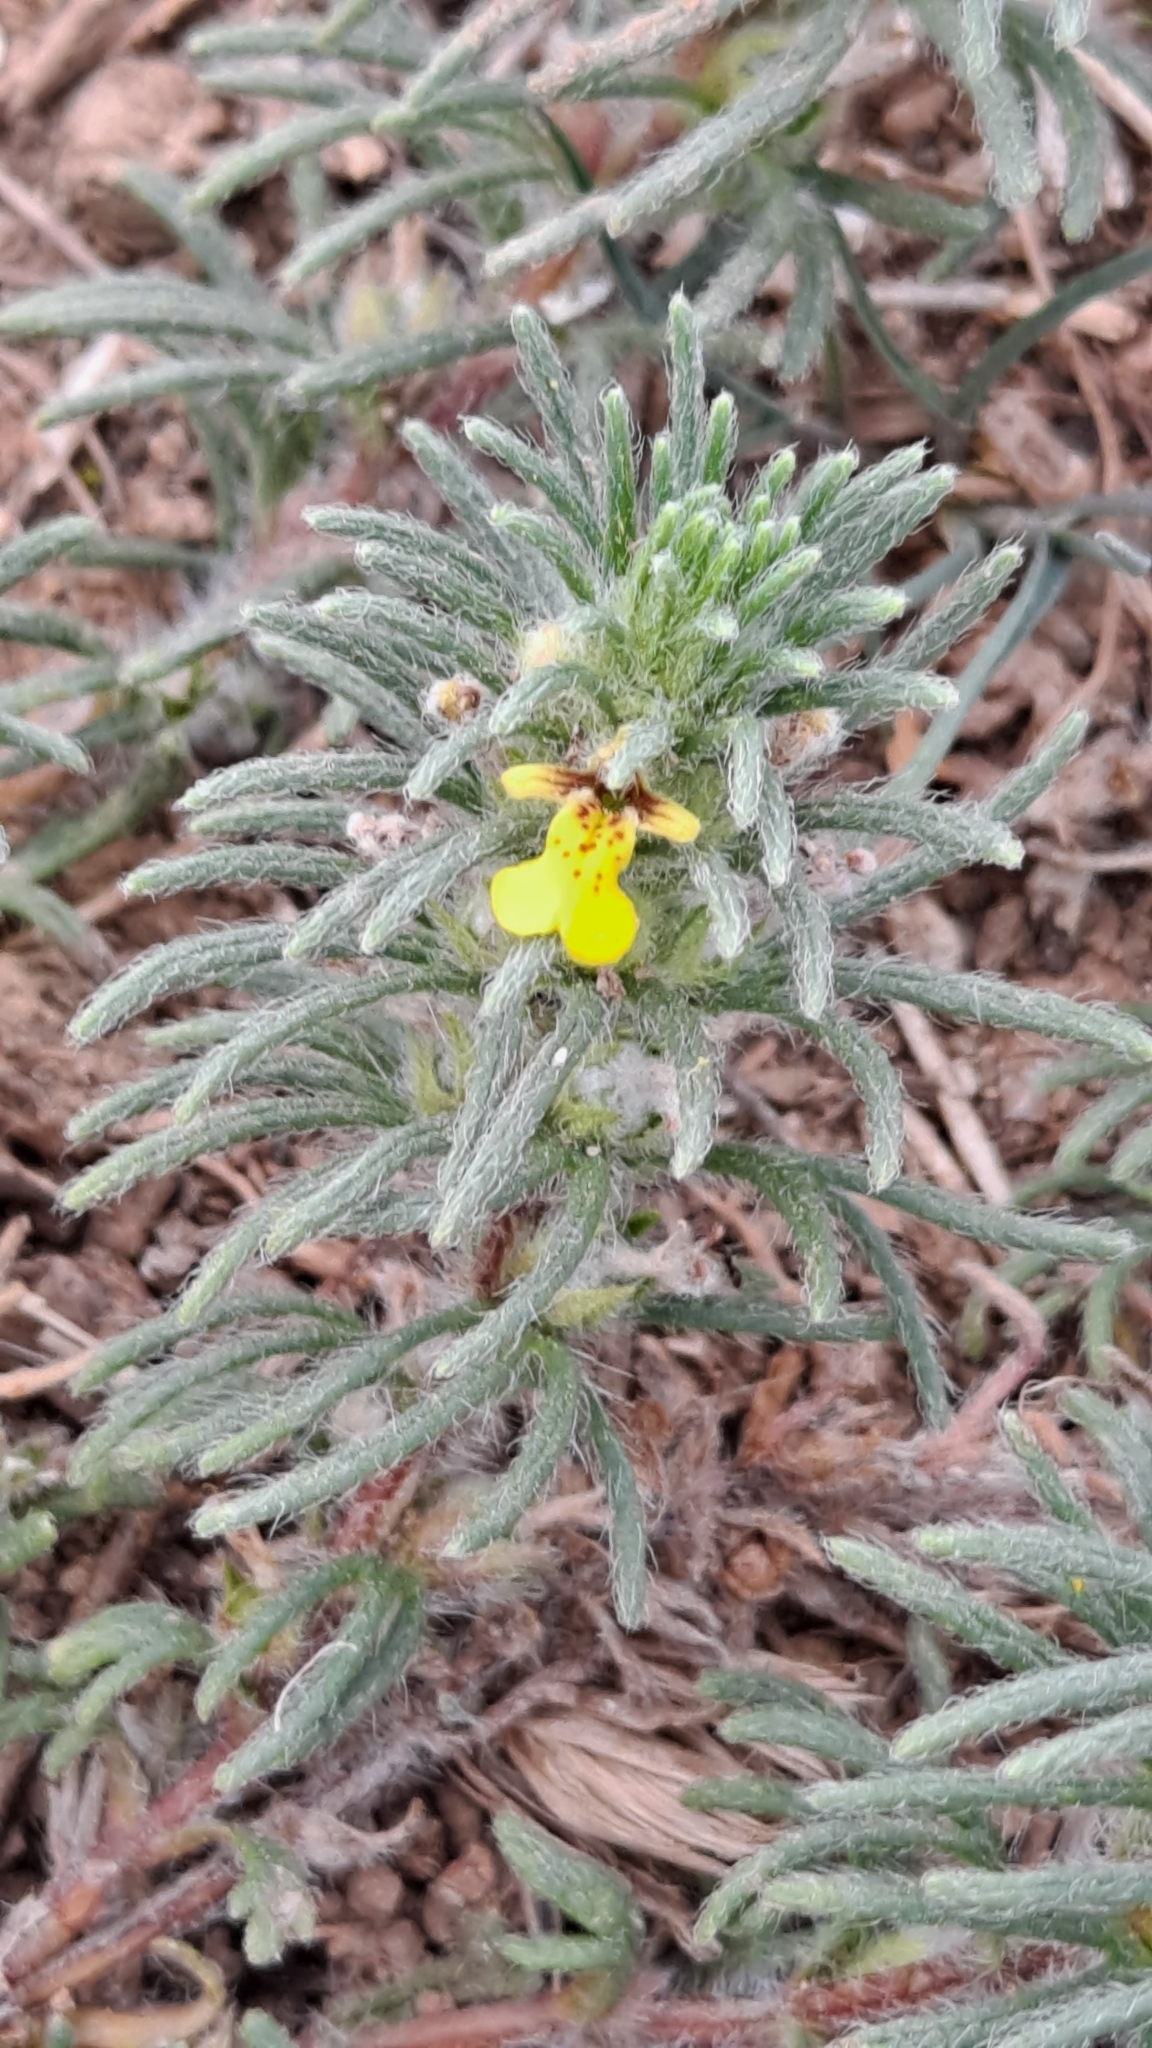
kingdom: Plantae
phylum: Tracheophyta
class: Magnoliopsida
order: Lamiales
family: Lamiaceae
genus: Ajuga
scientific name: Ajuga chamaepitys
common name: Ground-pine
